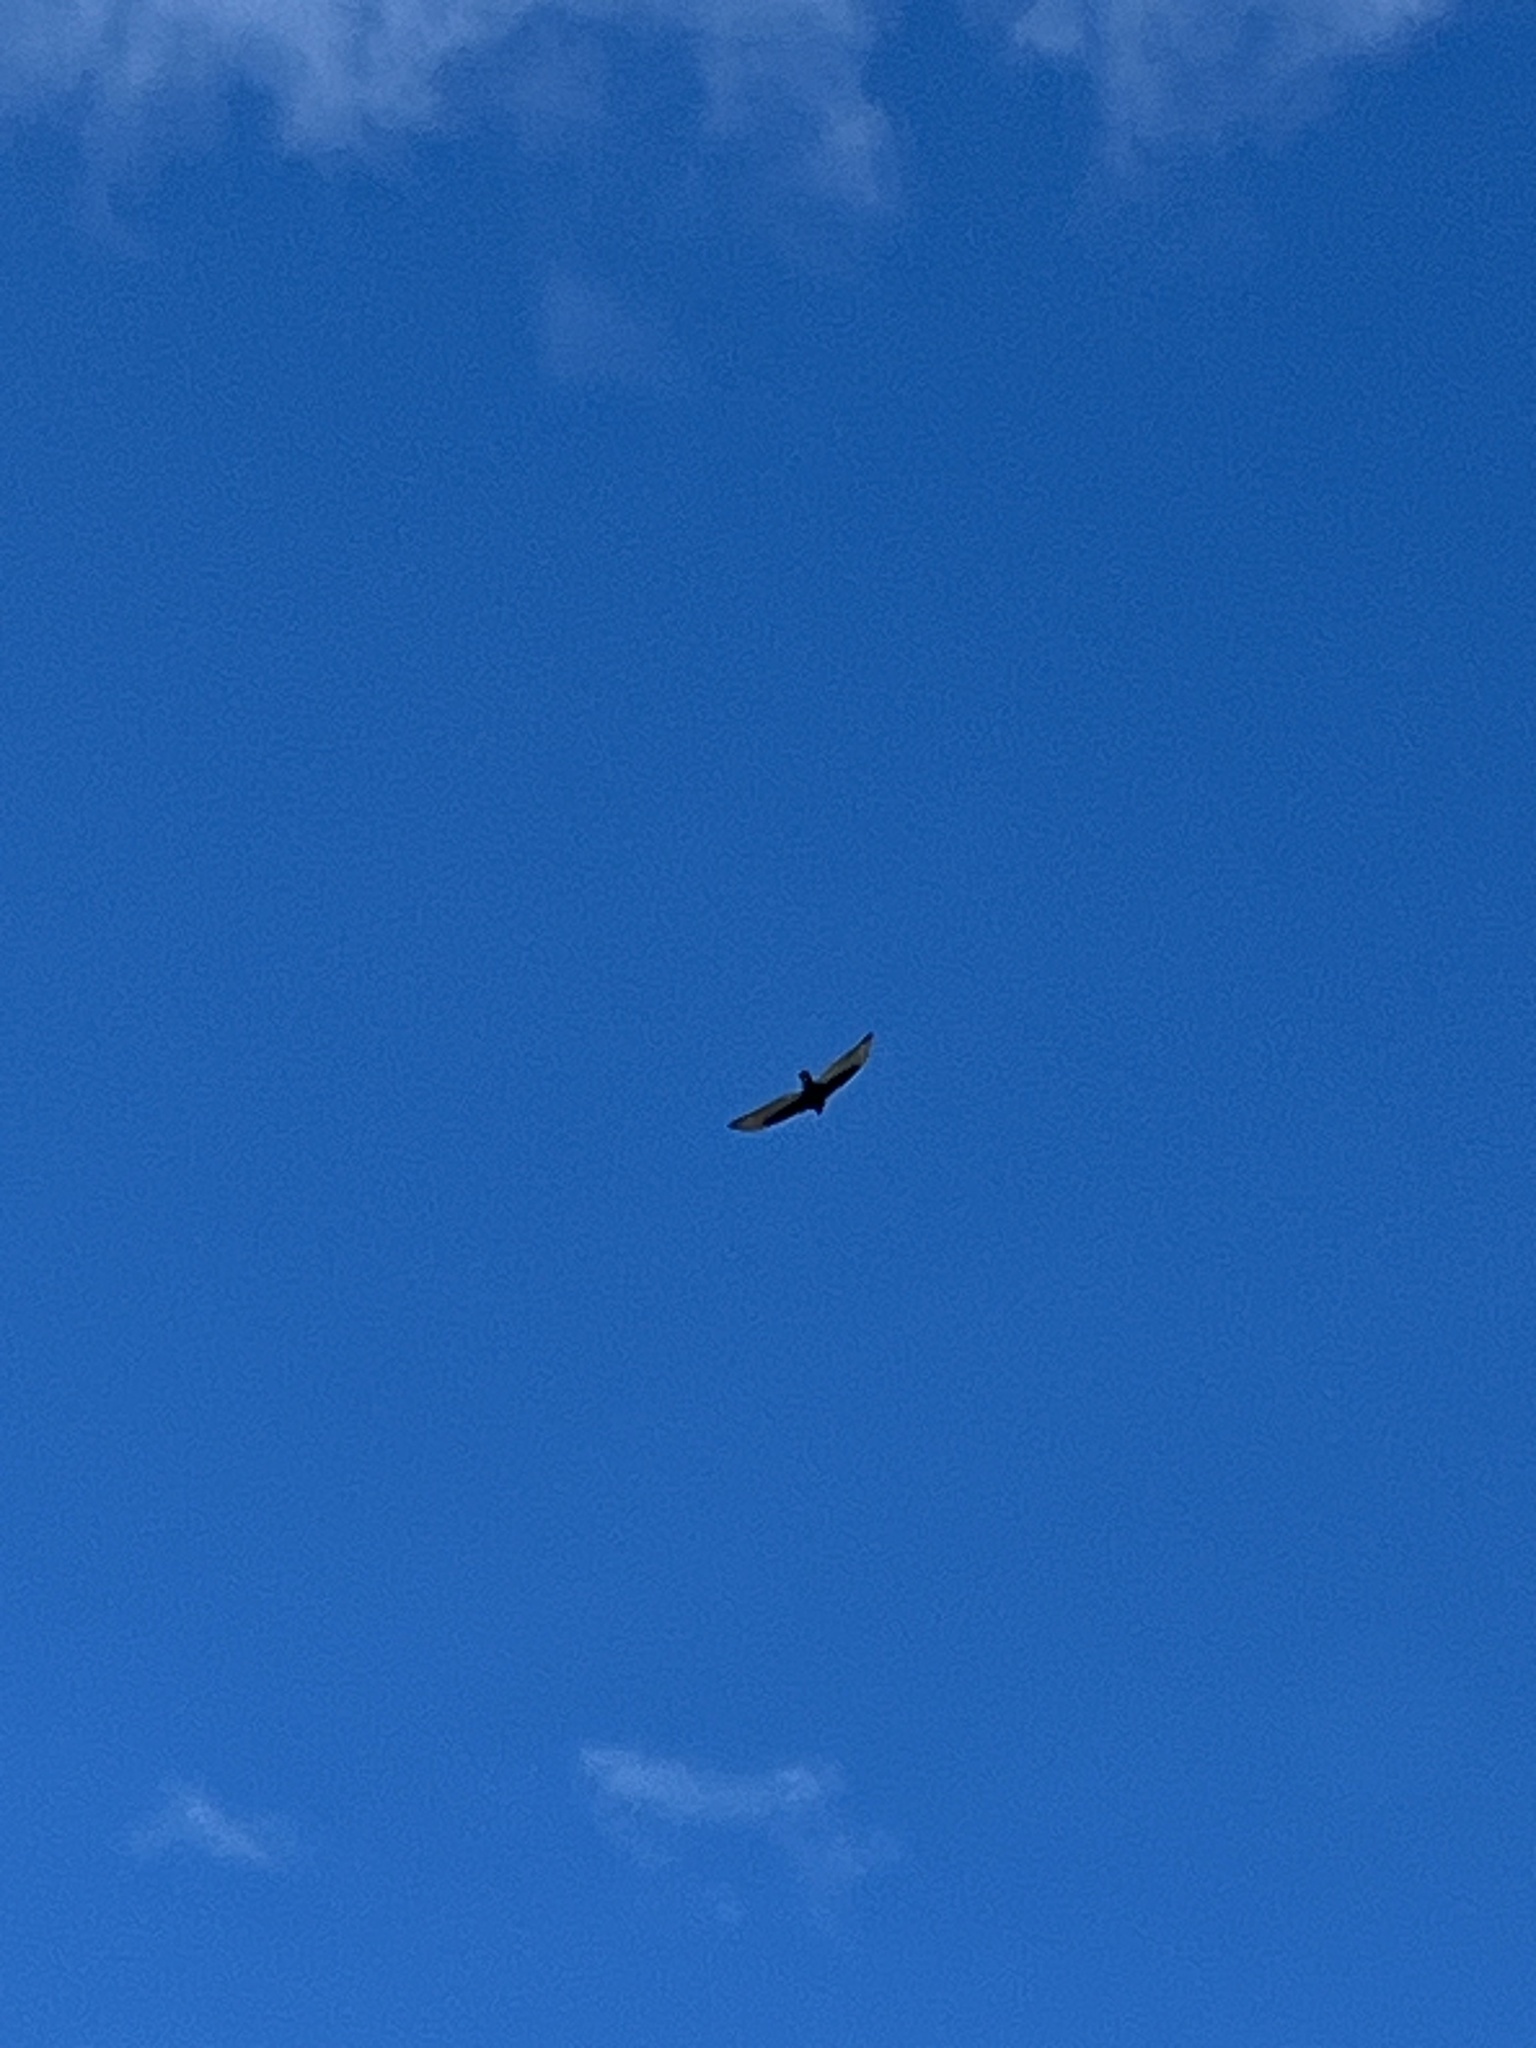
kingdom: Animalia
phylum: Chordata
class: Aves
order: Accipitriformes
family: Cathartidae
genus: Cathartes
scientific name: Cathartes aura
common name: Turkey vulture
